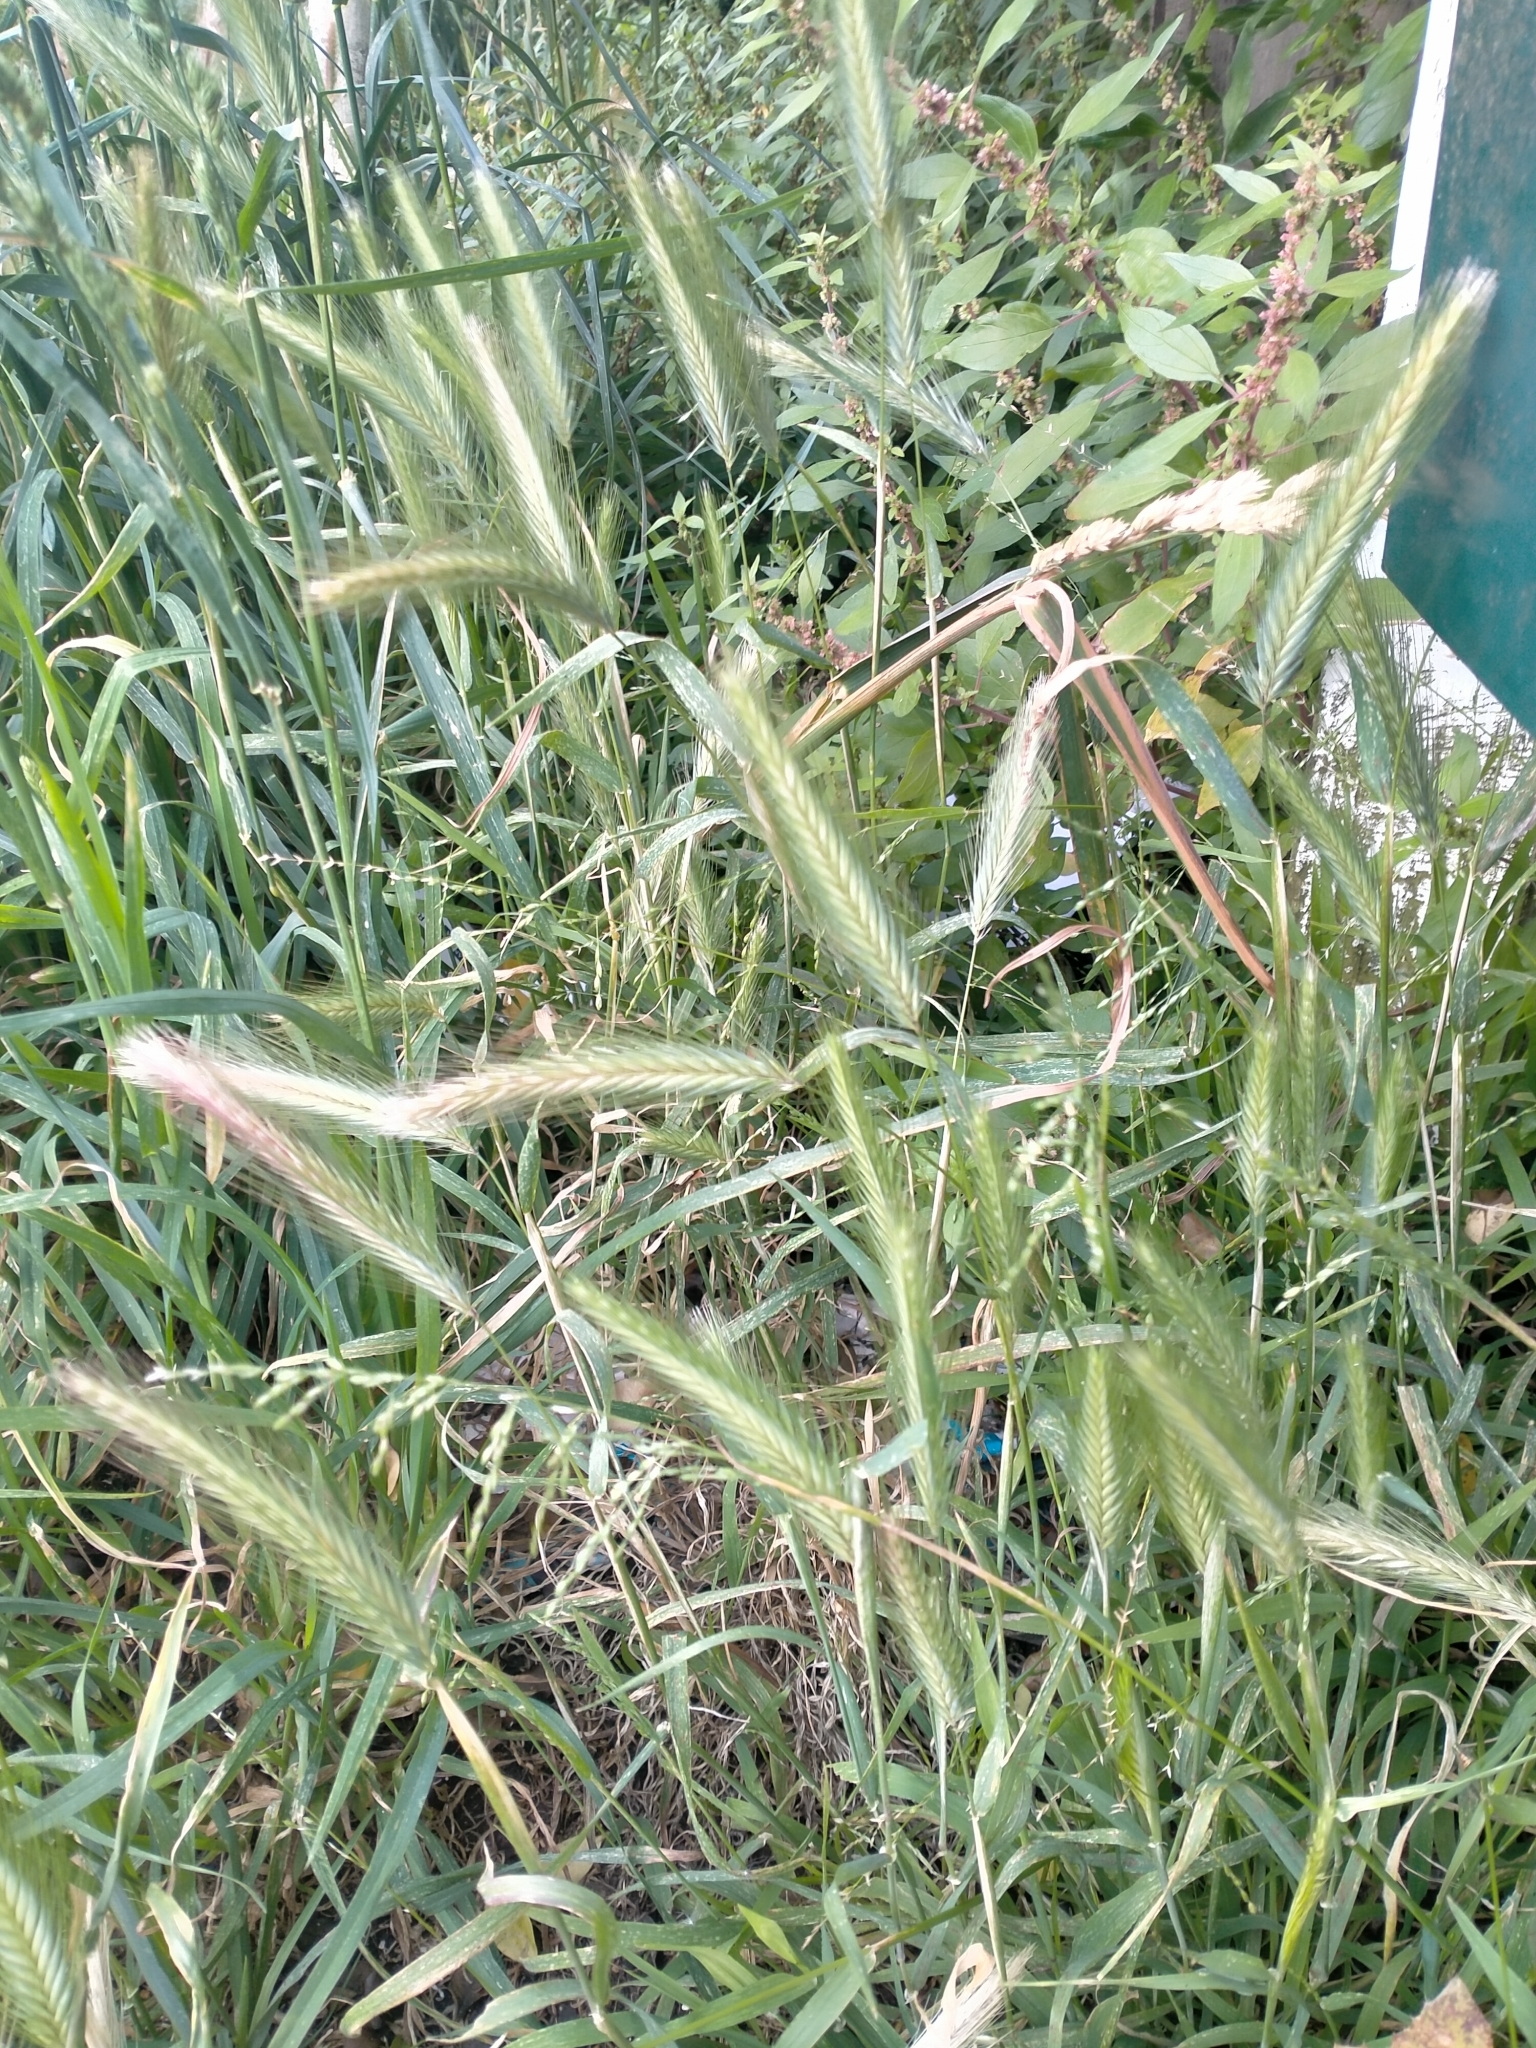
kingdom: Plantae
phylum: Tracheophyta
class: Liliopsida
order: Poales
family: Poaceae
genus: Hordeum
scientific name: Hordeum murinum
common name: Wall barley
